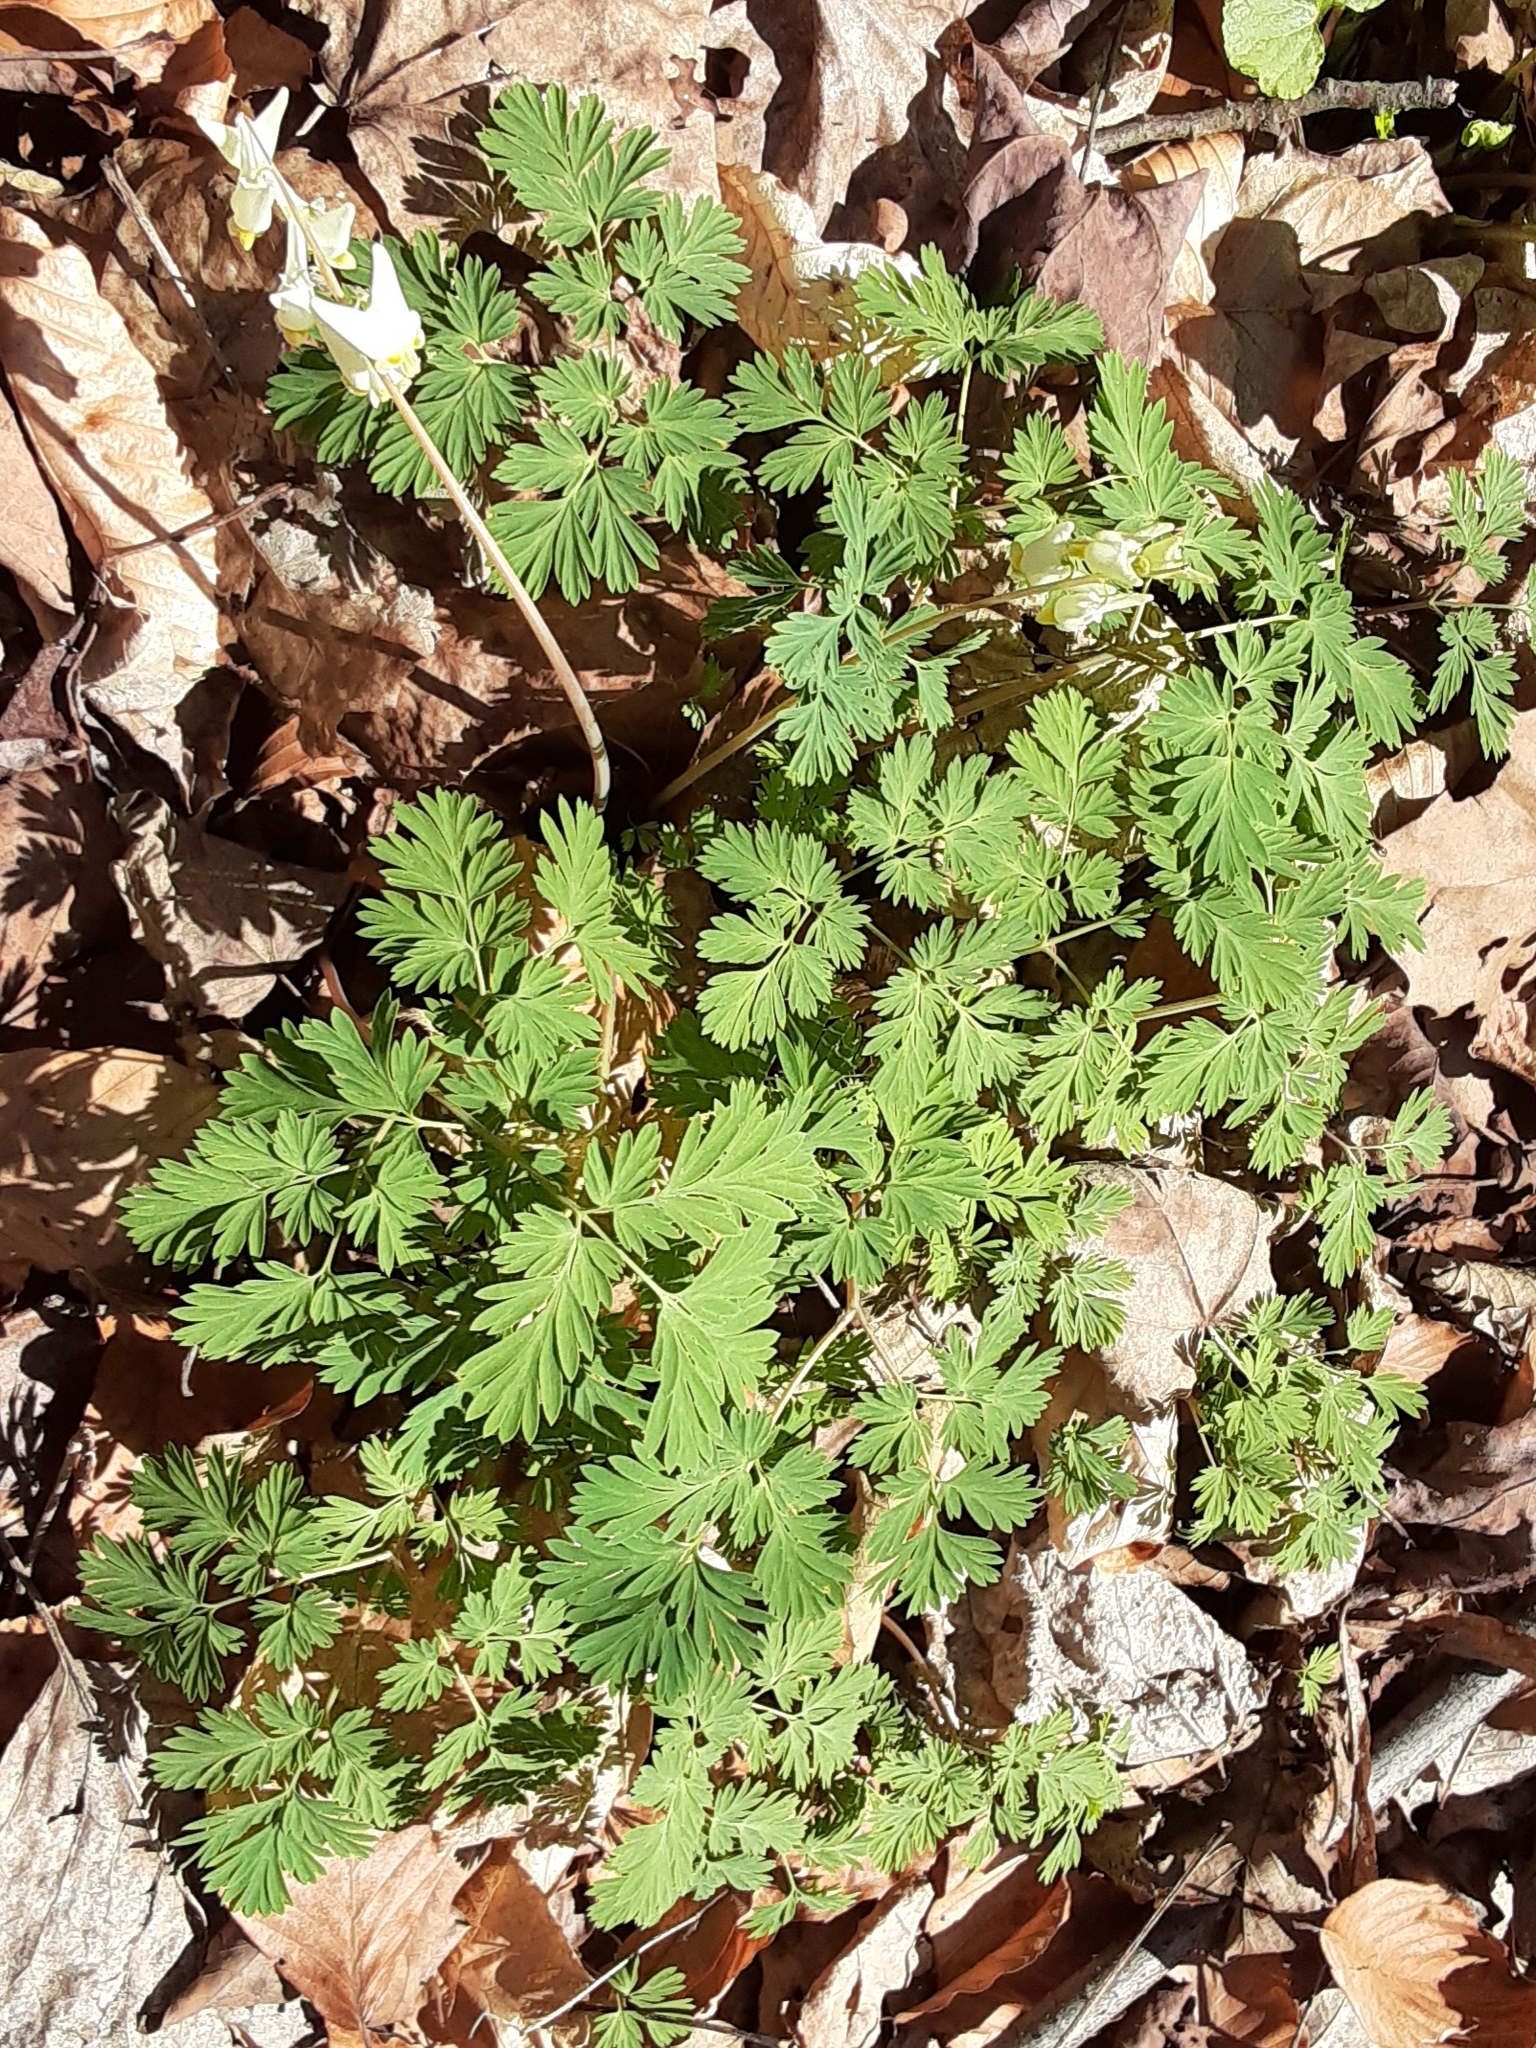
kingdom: Plantae
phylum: Tracheophyta
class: Magnoliopsida
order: Ranunculales
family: Papaveraceae
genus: Dicentra
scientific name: Dicentra cucullaria
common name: Dutchman's breeches
